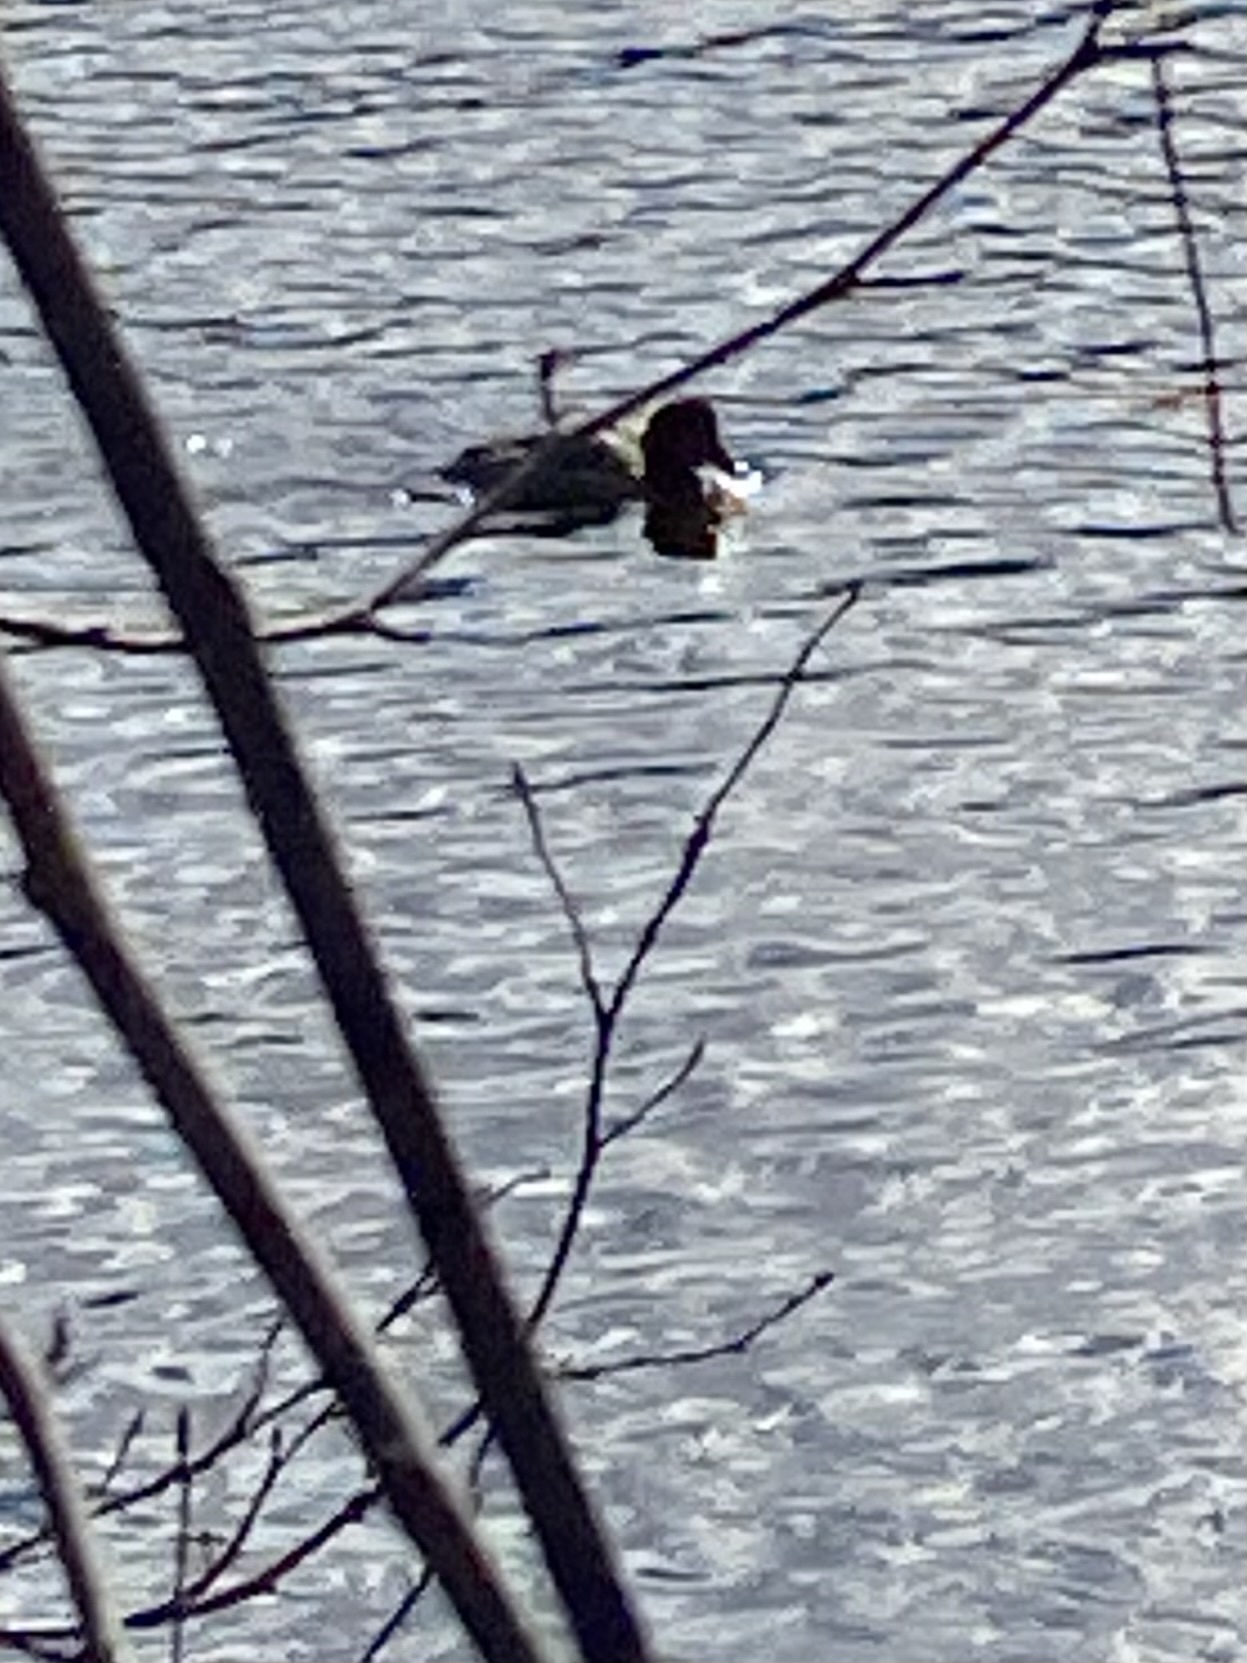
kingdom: Animalia
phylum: Chordata
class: Aves
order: Anseriformes
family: Anatidae
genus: Aythya
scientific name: Aythya americana
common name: Redhead
